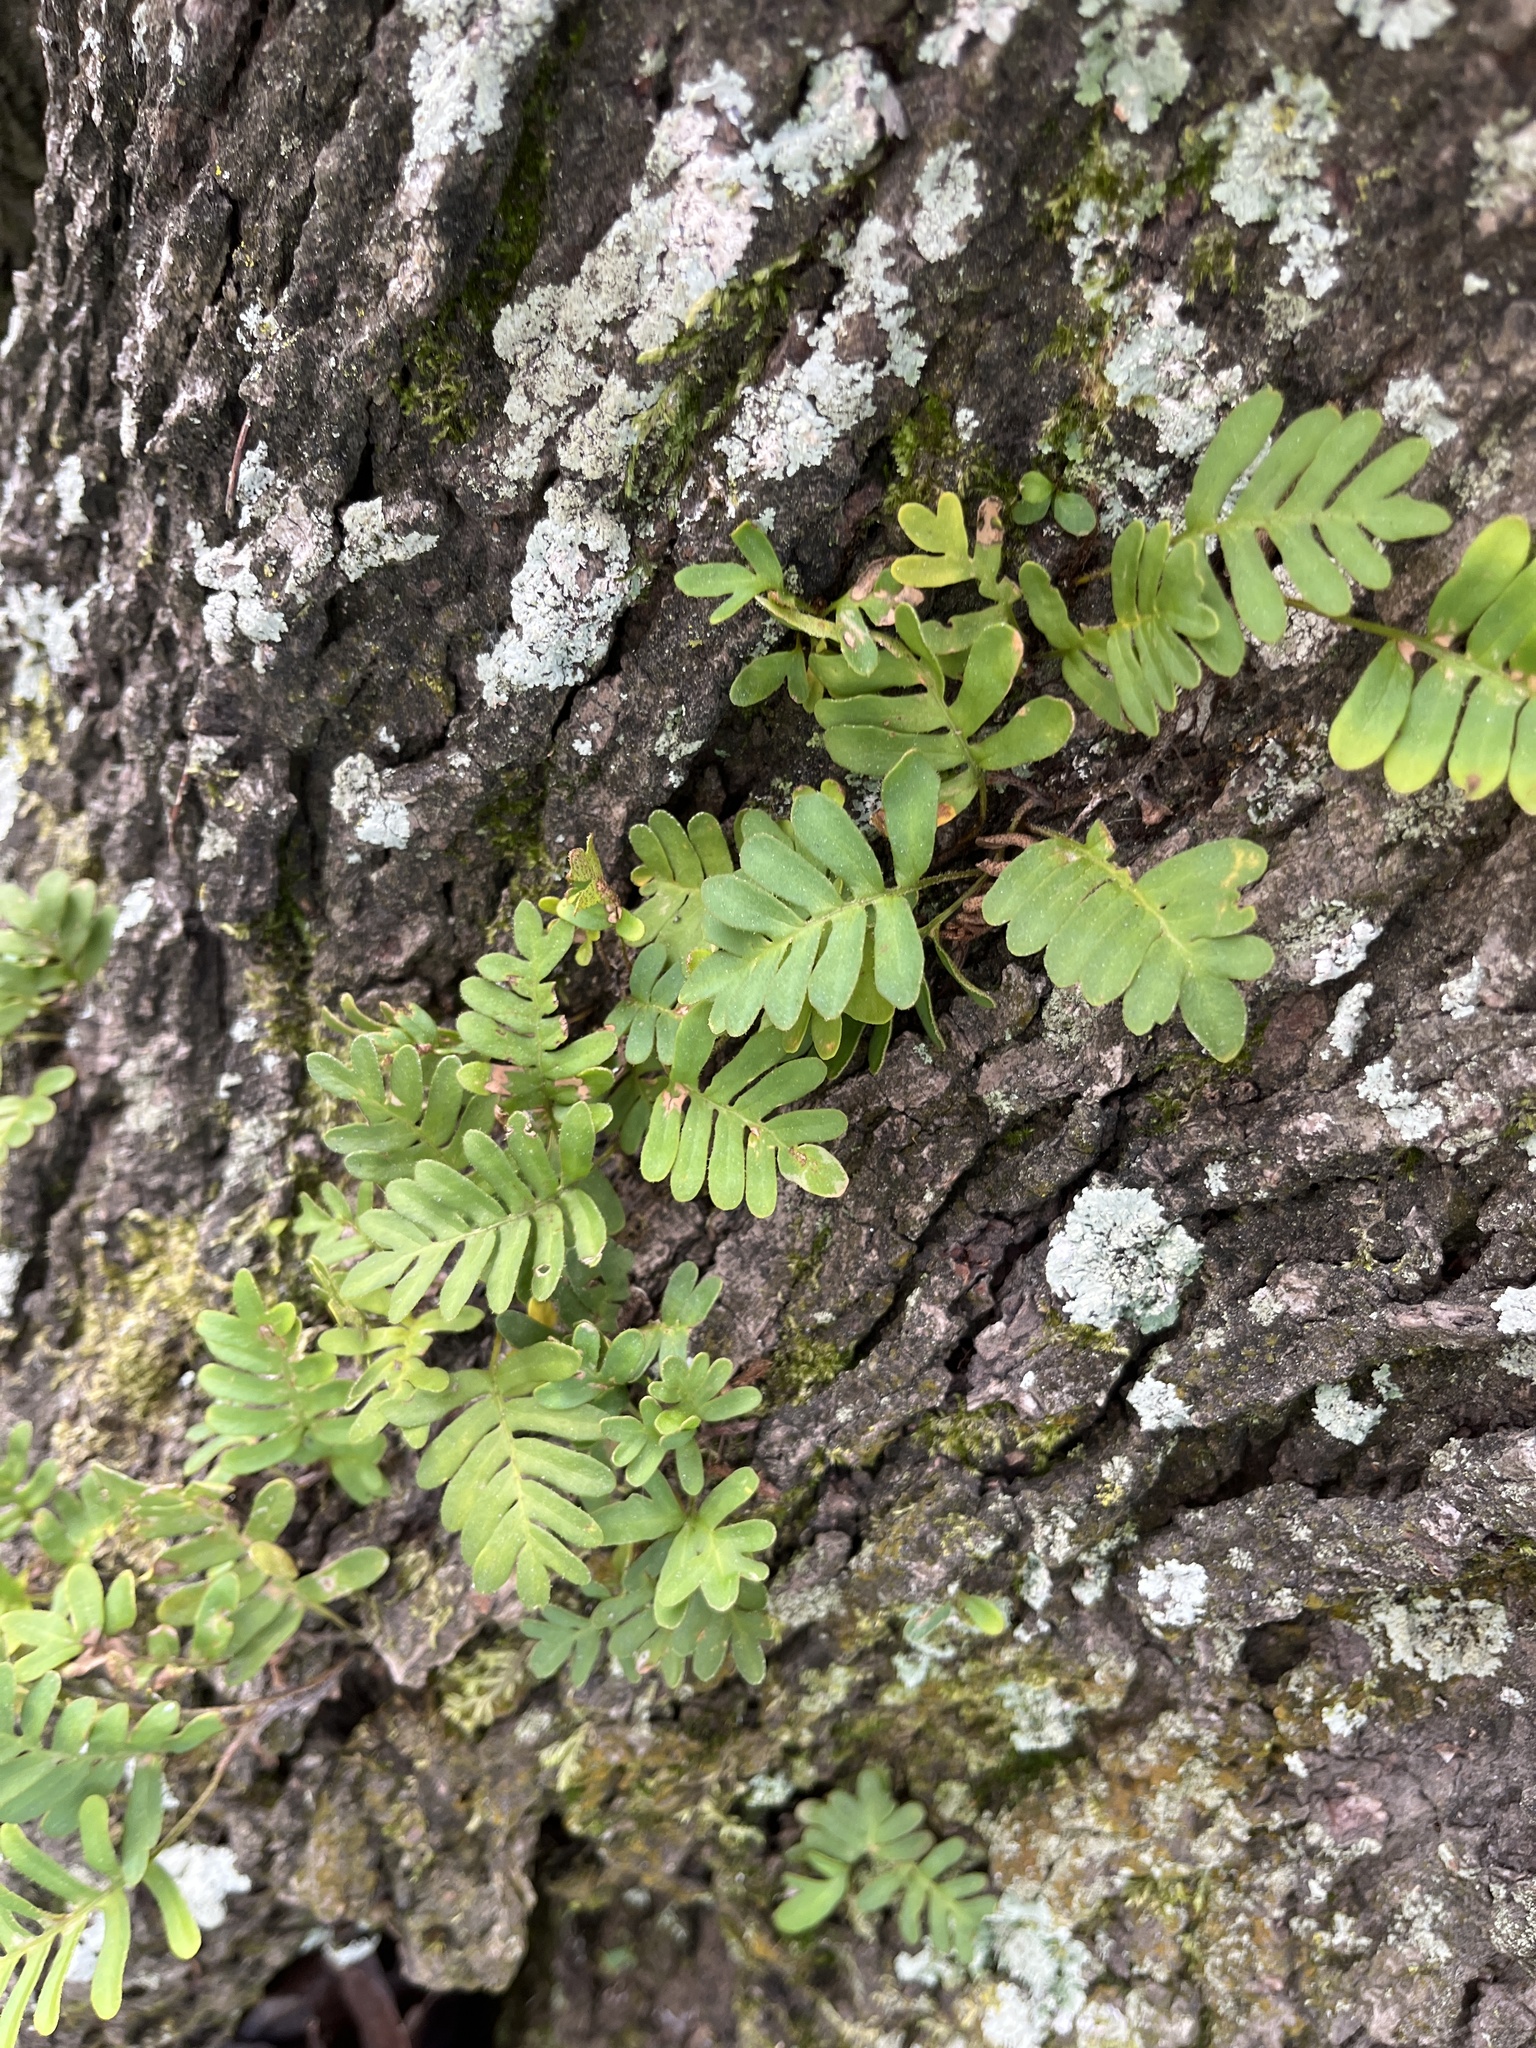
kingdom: Plantae
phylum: Tracheophyta
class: Polypodiopsida
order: Polypodiales
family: Polypodiaceae
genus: Pleopeltis
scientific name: Pleopeltis michauxiana
